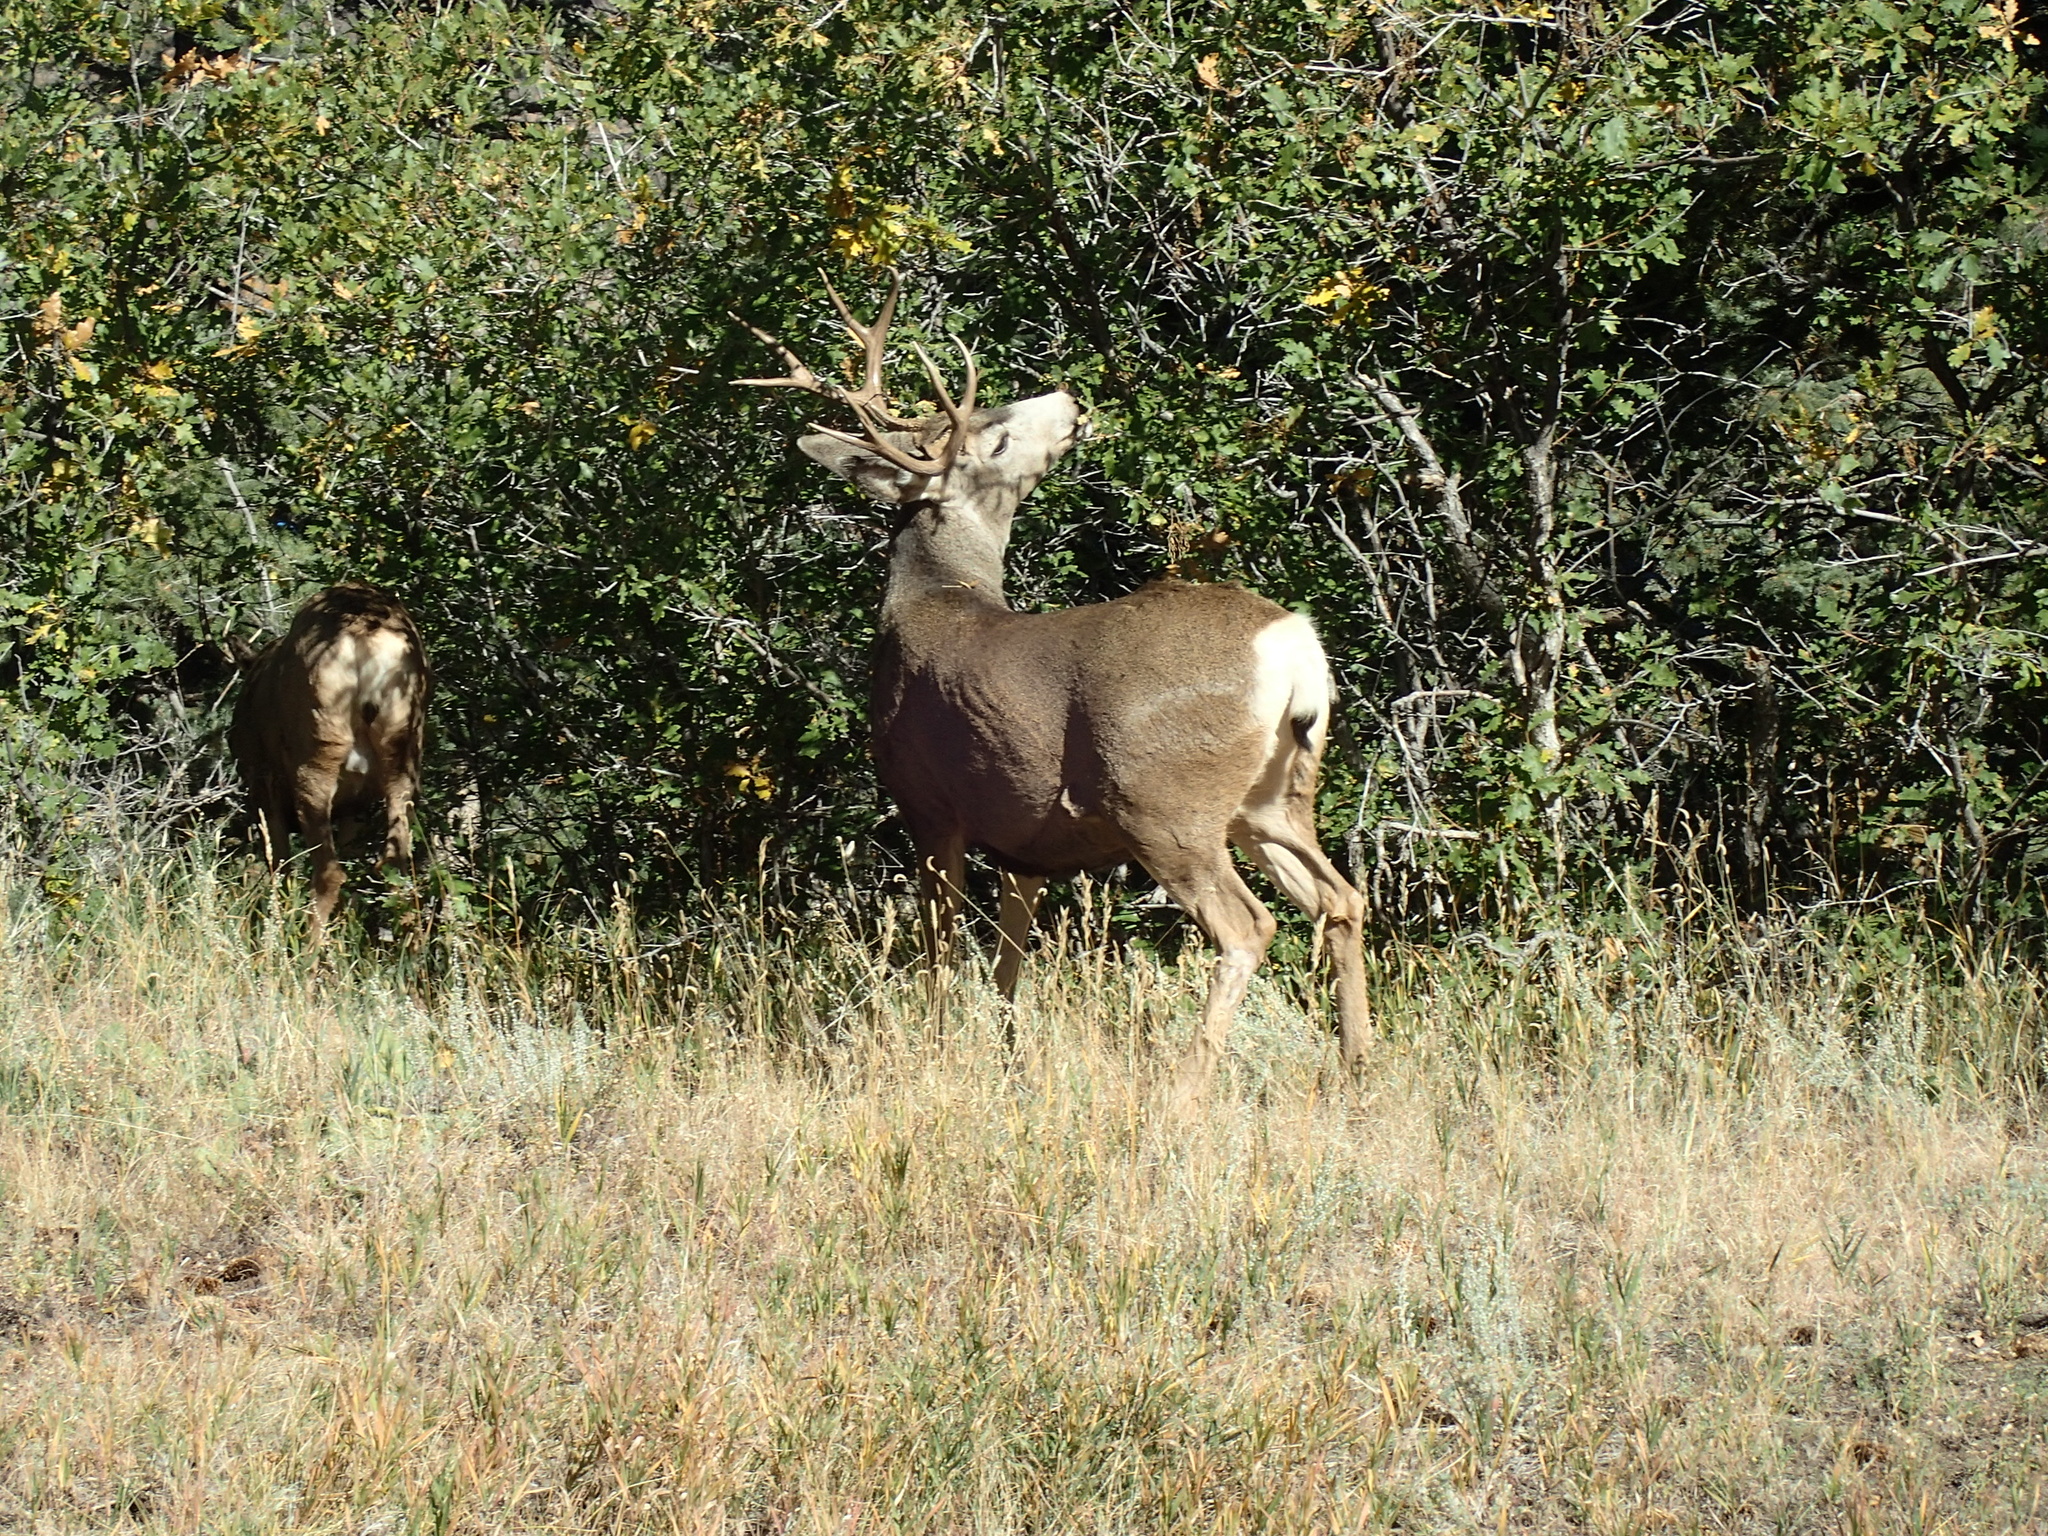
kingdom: Animalia
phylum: Chordata
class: Mammalia
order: Artiodactyla
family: Cervidae
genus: Odocoileus
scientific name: Odocoileus hemionus
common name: Mule deer
